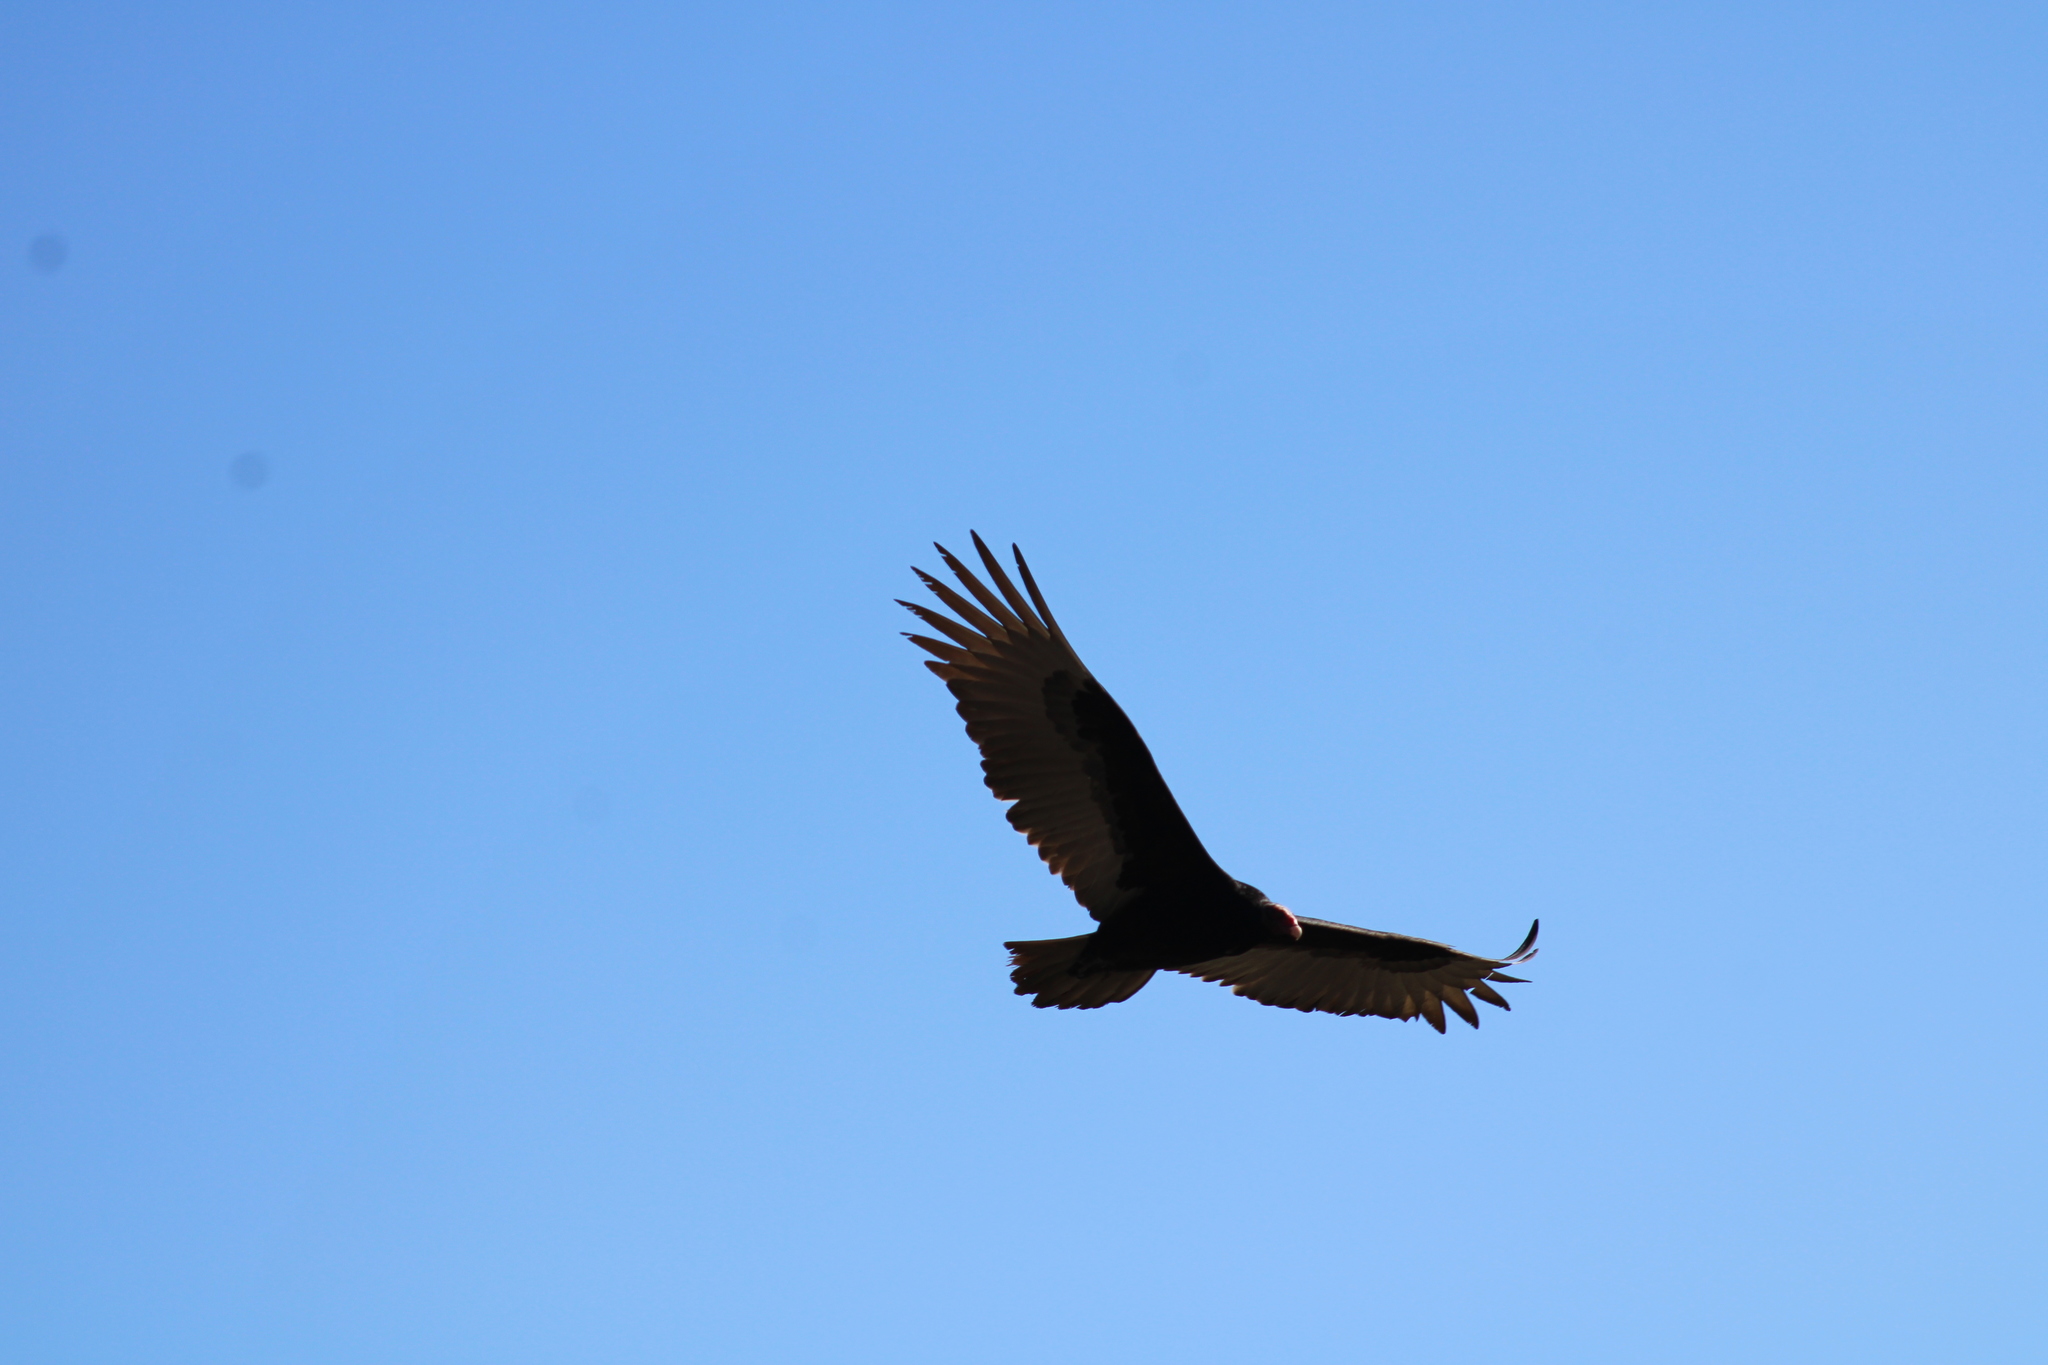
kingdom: Animalia
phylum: Chordata
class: Aves
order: Accipitriformes
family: Cathartidae
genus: Cathartes
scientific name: Cathartes aura
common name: Turkey vulture
